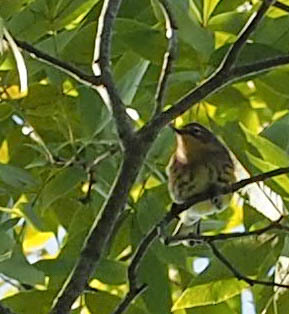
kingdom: Animalia
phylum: Chordata
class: Aves
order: Passeriformes
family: Parulidae
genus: Setophaga
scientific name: Setophaga coronata
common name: Myrtle warbler
